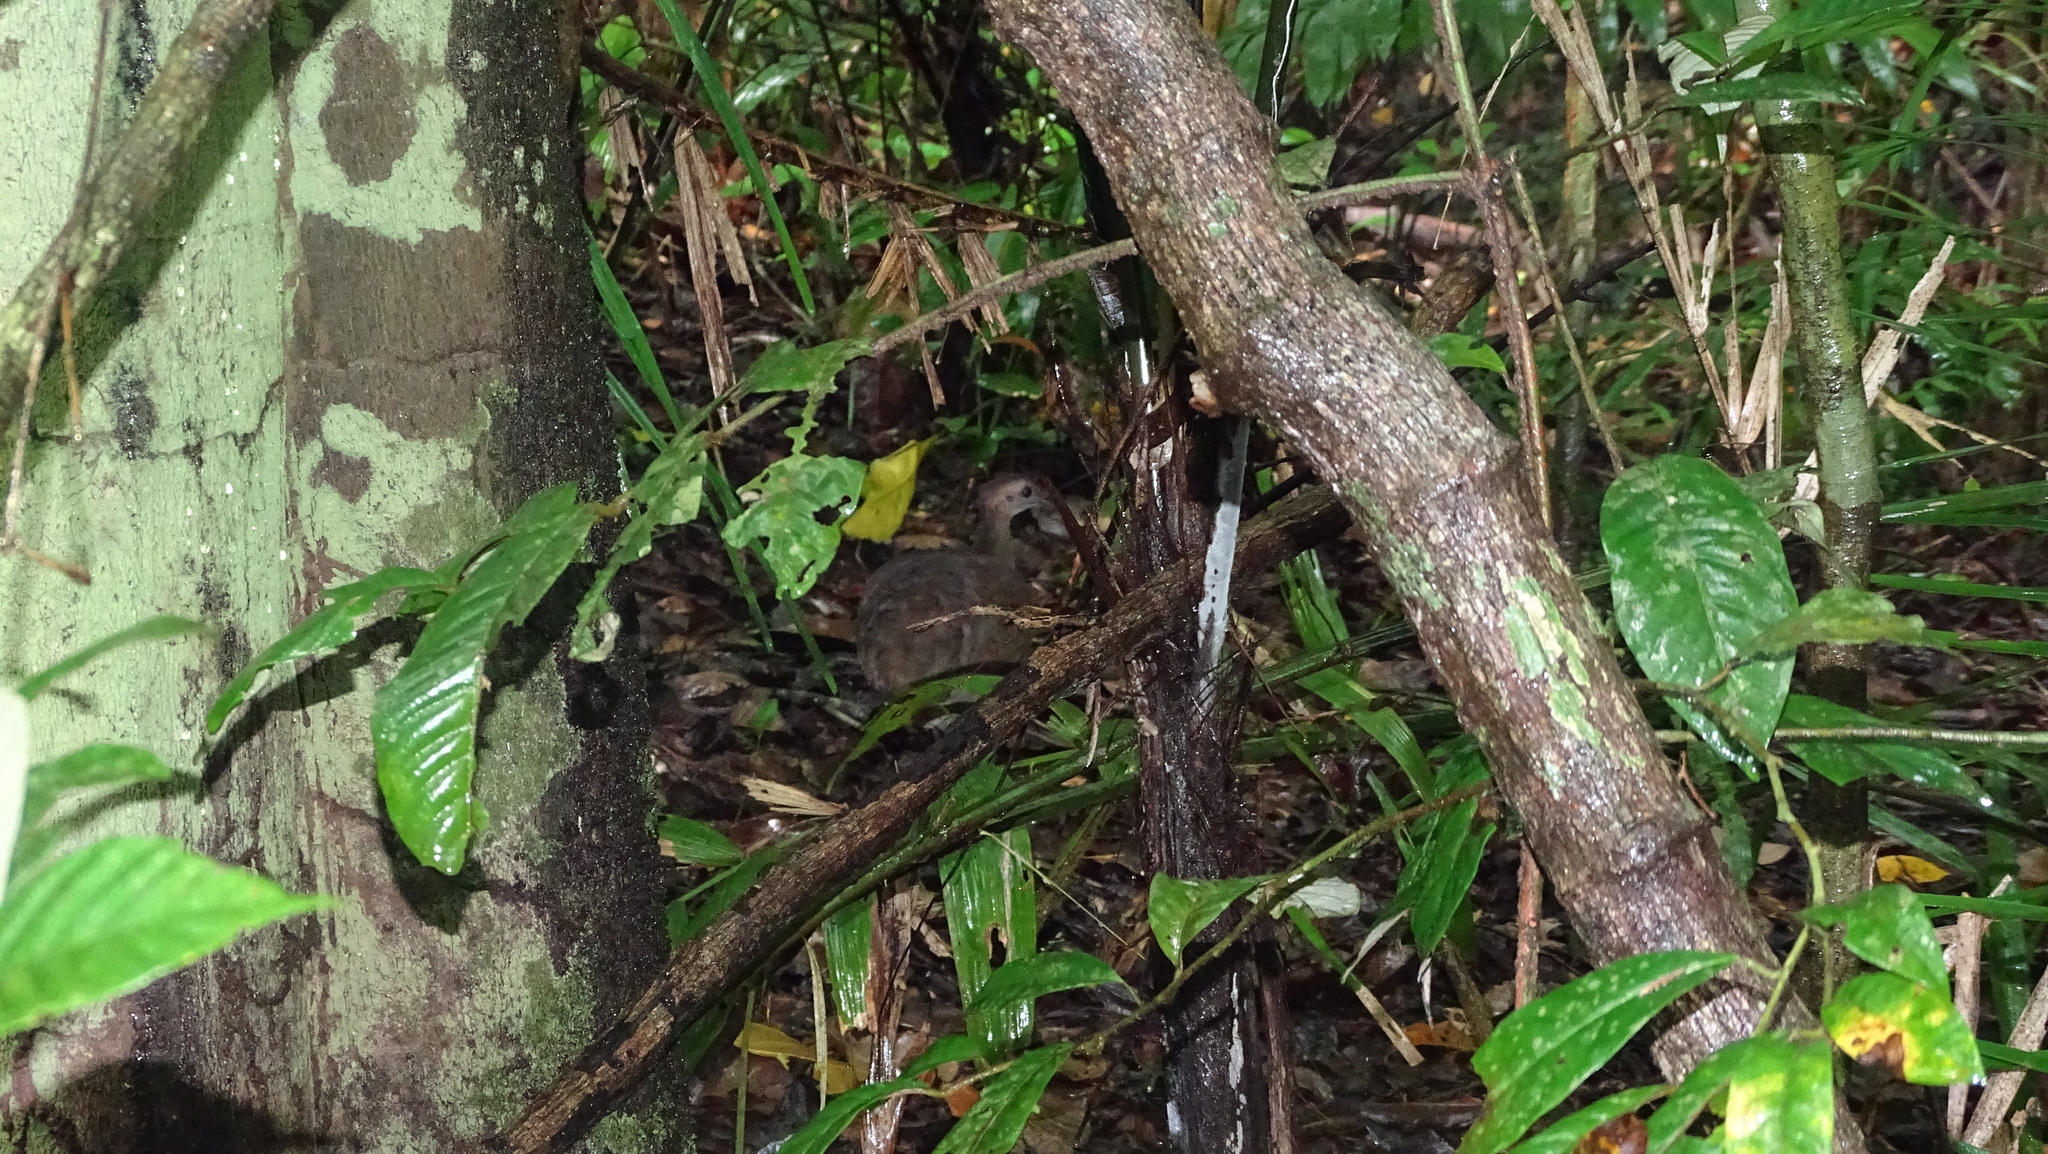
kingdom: Animalia
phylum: Chordata
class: Aves
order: Tinamiformes
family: Tinamidae
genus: Tinamus
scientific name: Tinamus major
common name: Great tinamou
